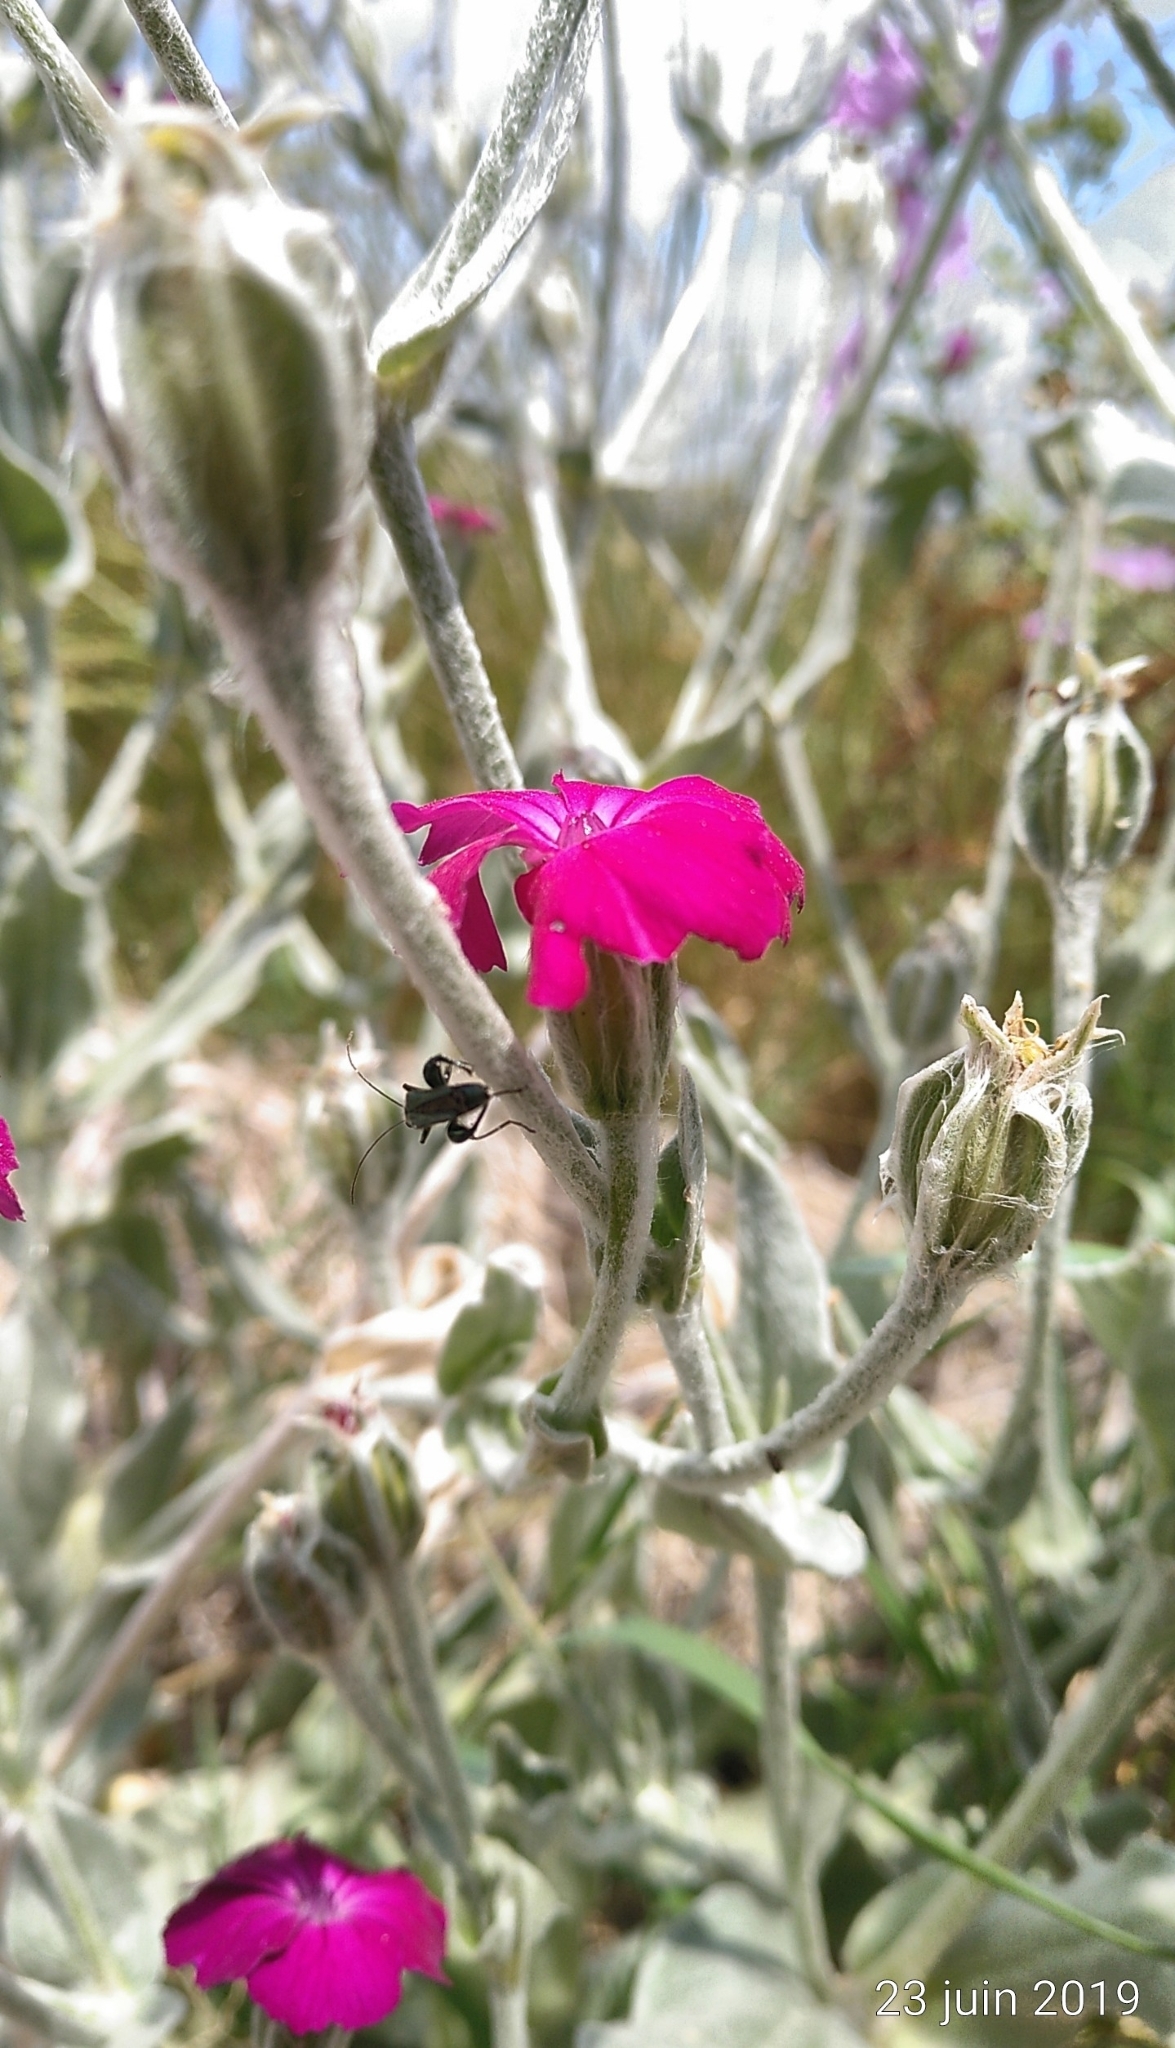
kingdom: Animalia
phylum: Arthropoda
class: Insecta
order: Coleoptera
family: Oedemeridae
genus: Oedemera
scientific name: Oedemera nobilis
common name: Swollen-thighed beetle
